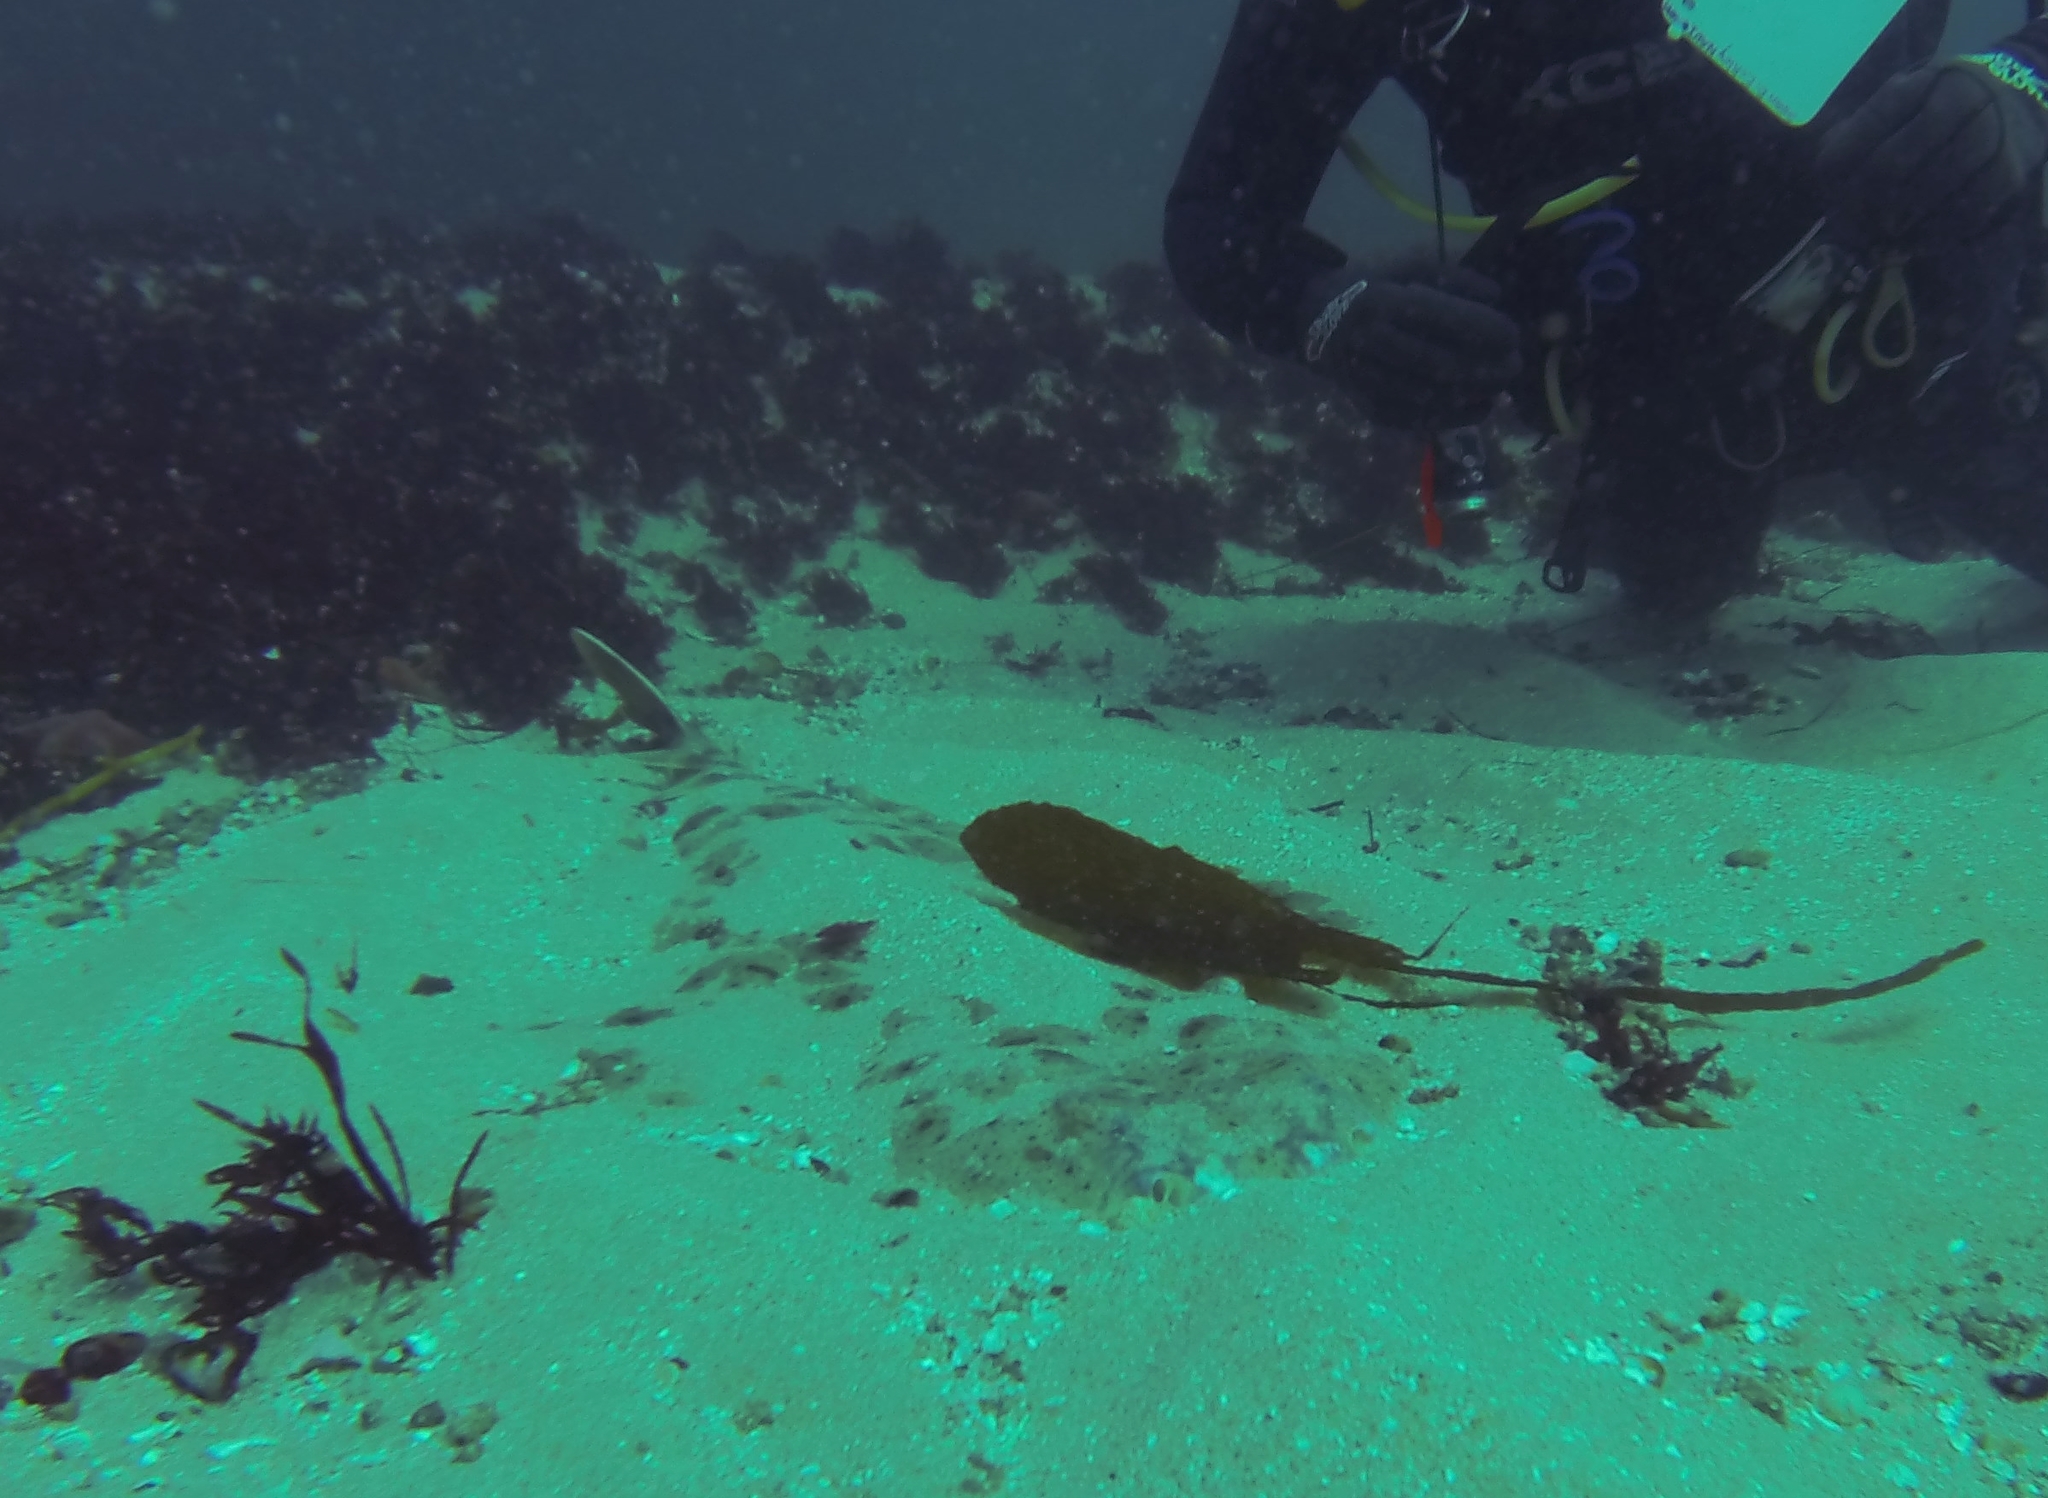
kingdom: Animalia
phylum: Chordata
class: Elasmobranchii
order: Squatiniformes
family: Squatinidae
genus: Squatina
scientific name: Squatina californica
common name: Pacific angel shark
